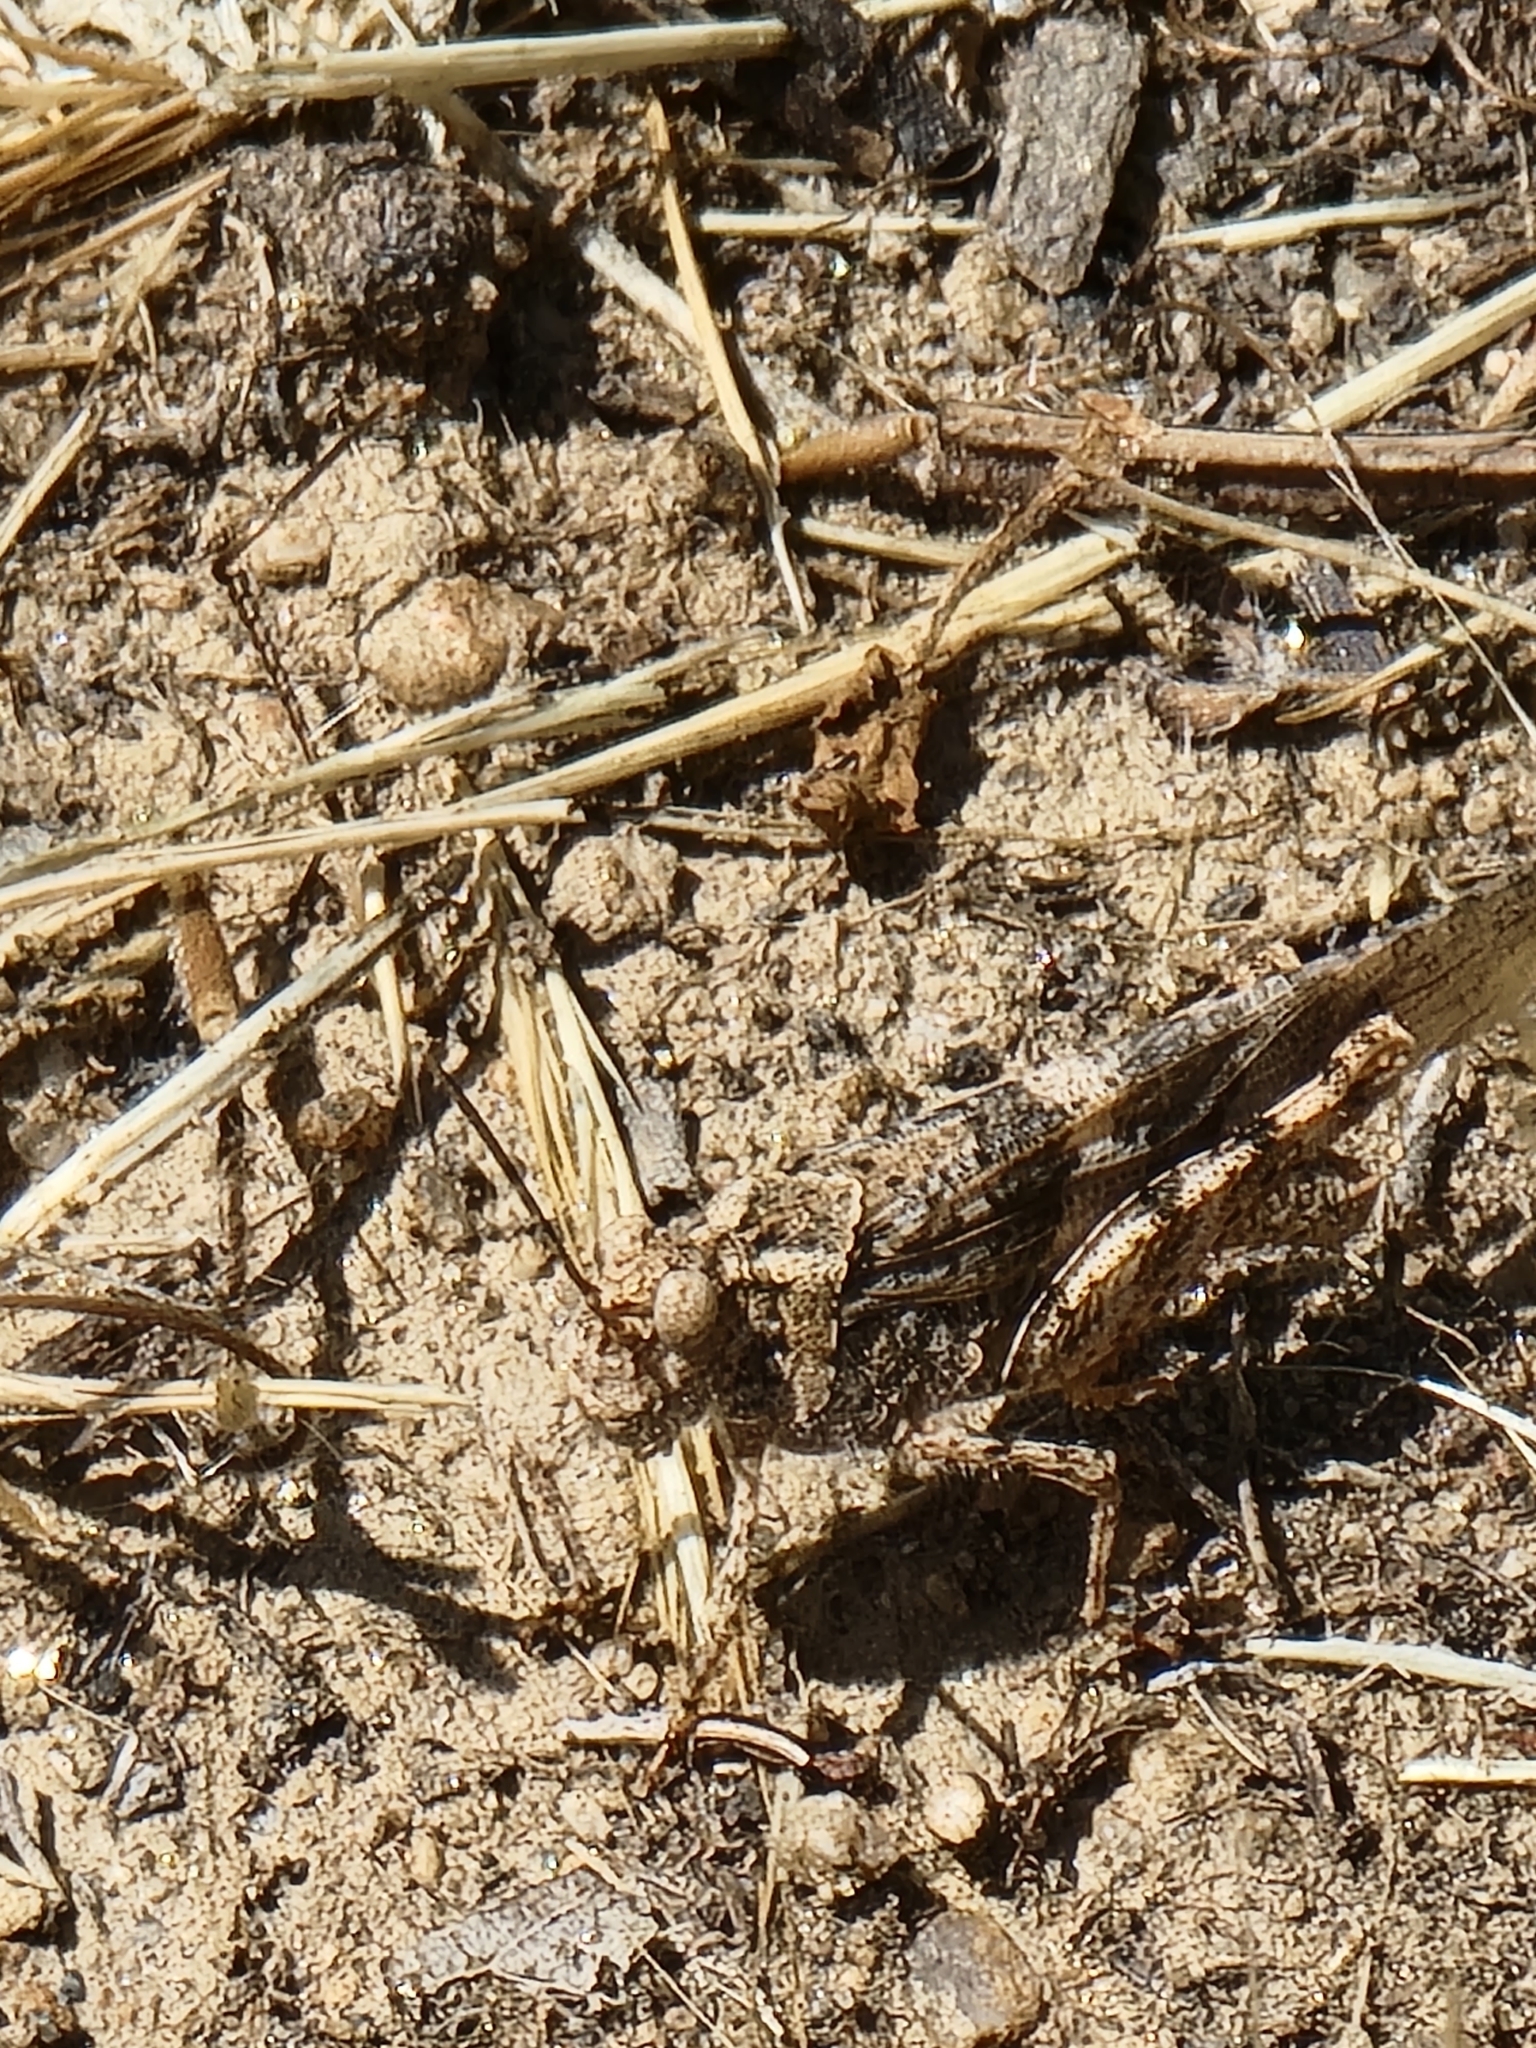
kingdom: Animalia
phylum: Arthropoda
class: Insecta
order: Orthoptera
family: Acrididae
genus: Trimerotropis
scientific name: Trimerotropis pallidipennis
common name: Pallid-winged grasshopper
